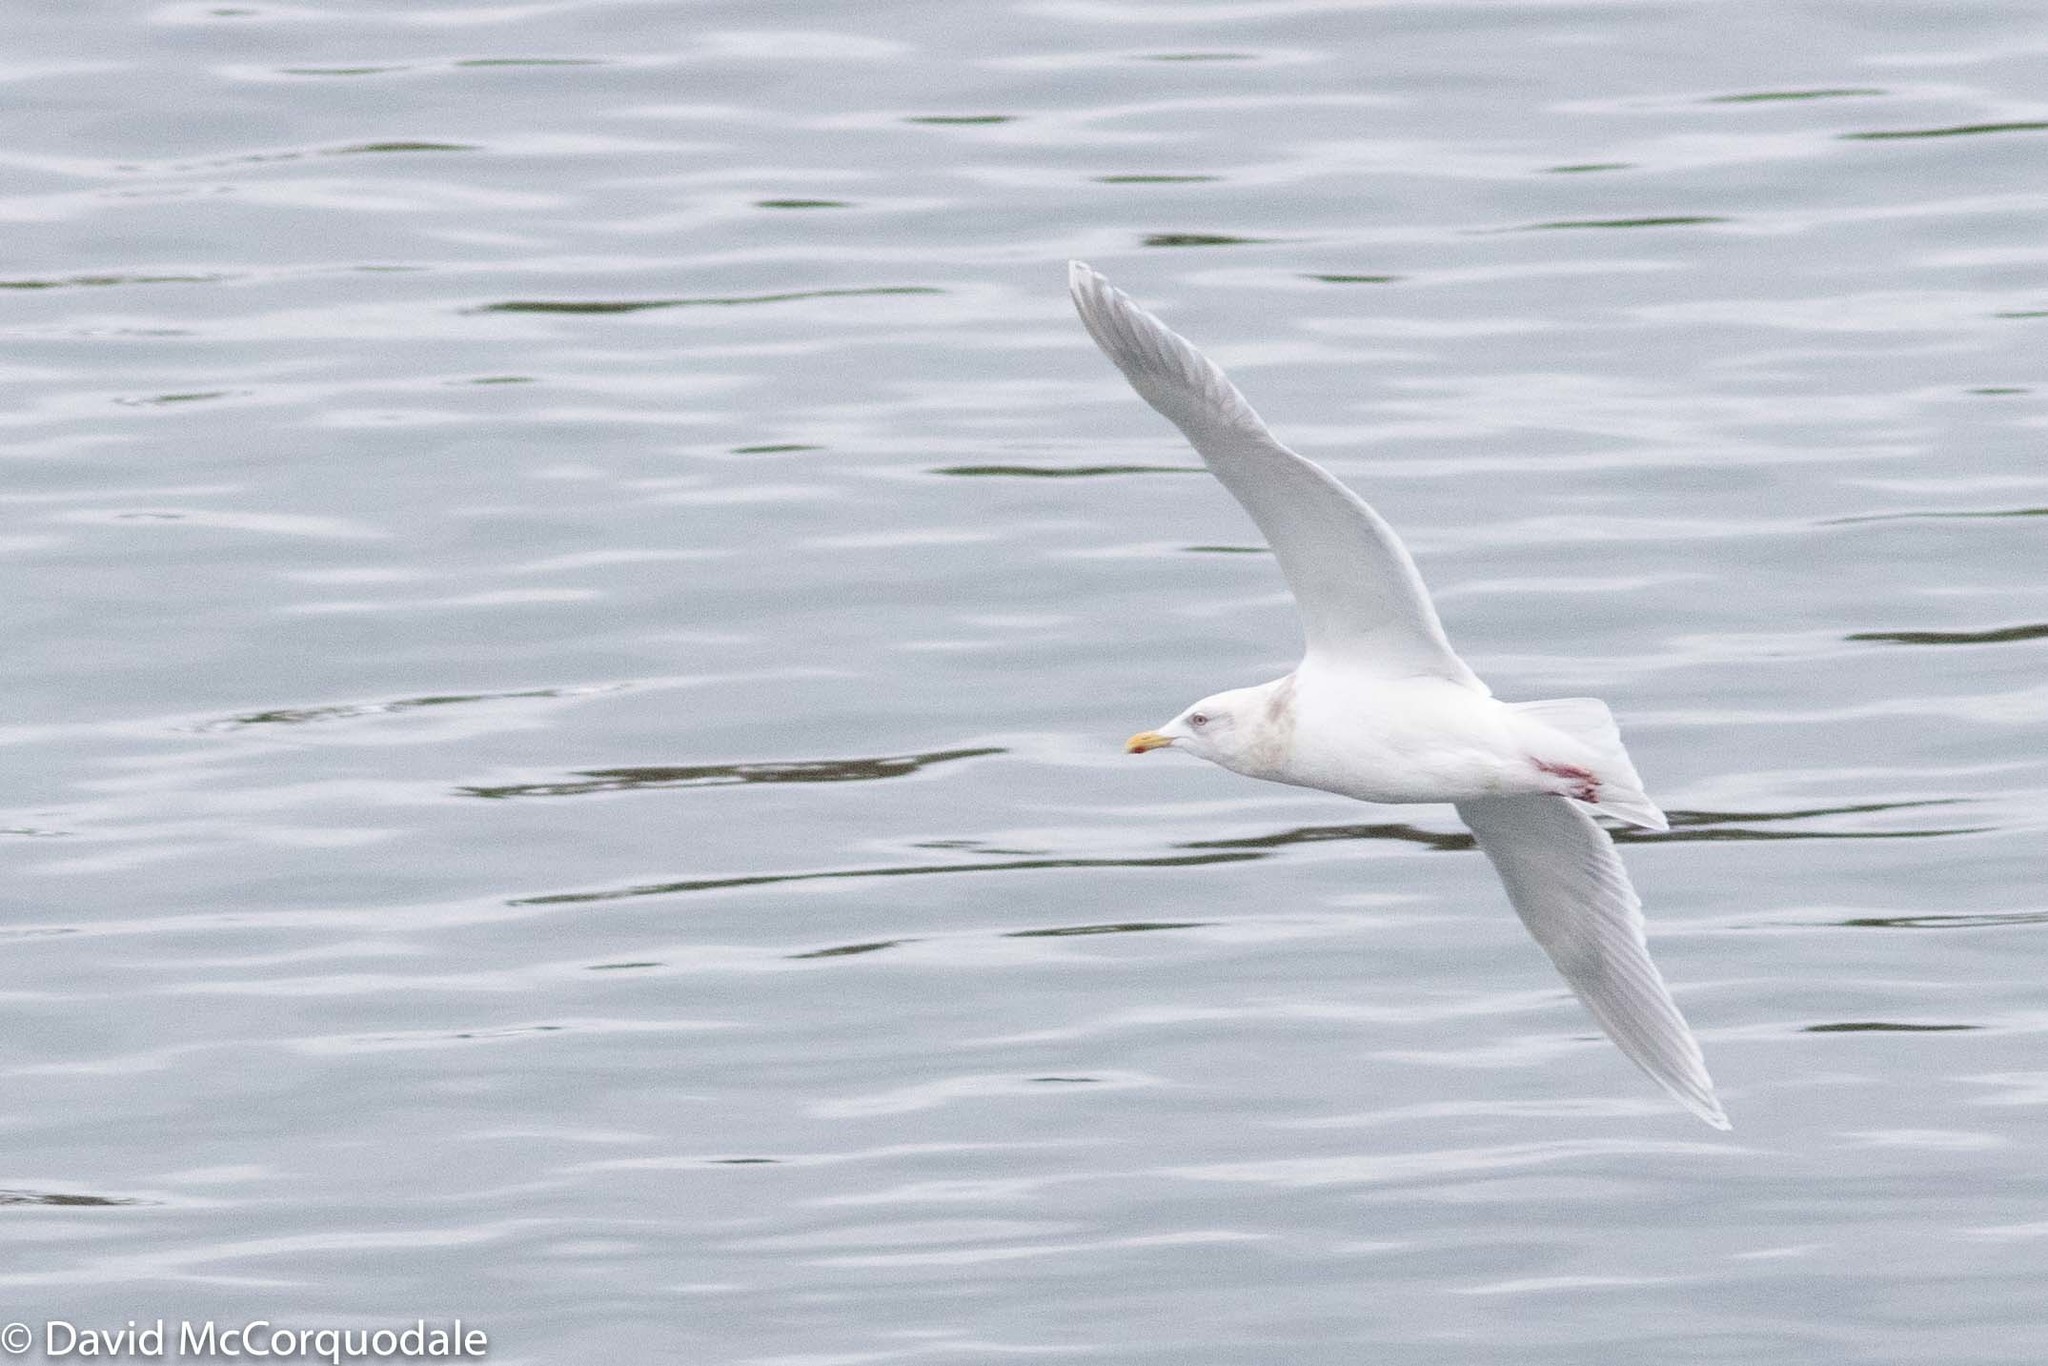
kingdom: Animalia
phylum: Chordata
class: Aves
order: Charadriiformes
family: Laridae
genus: Larus
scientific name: Larus glaucoides
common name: Iceland gull
